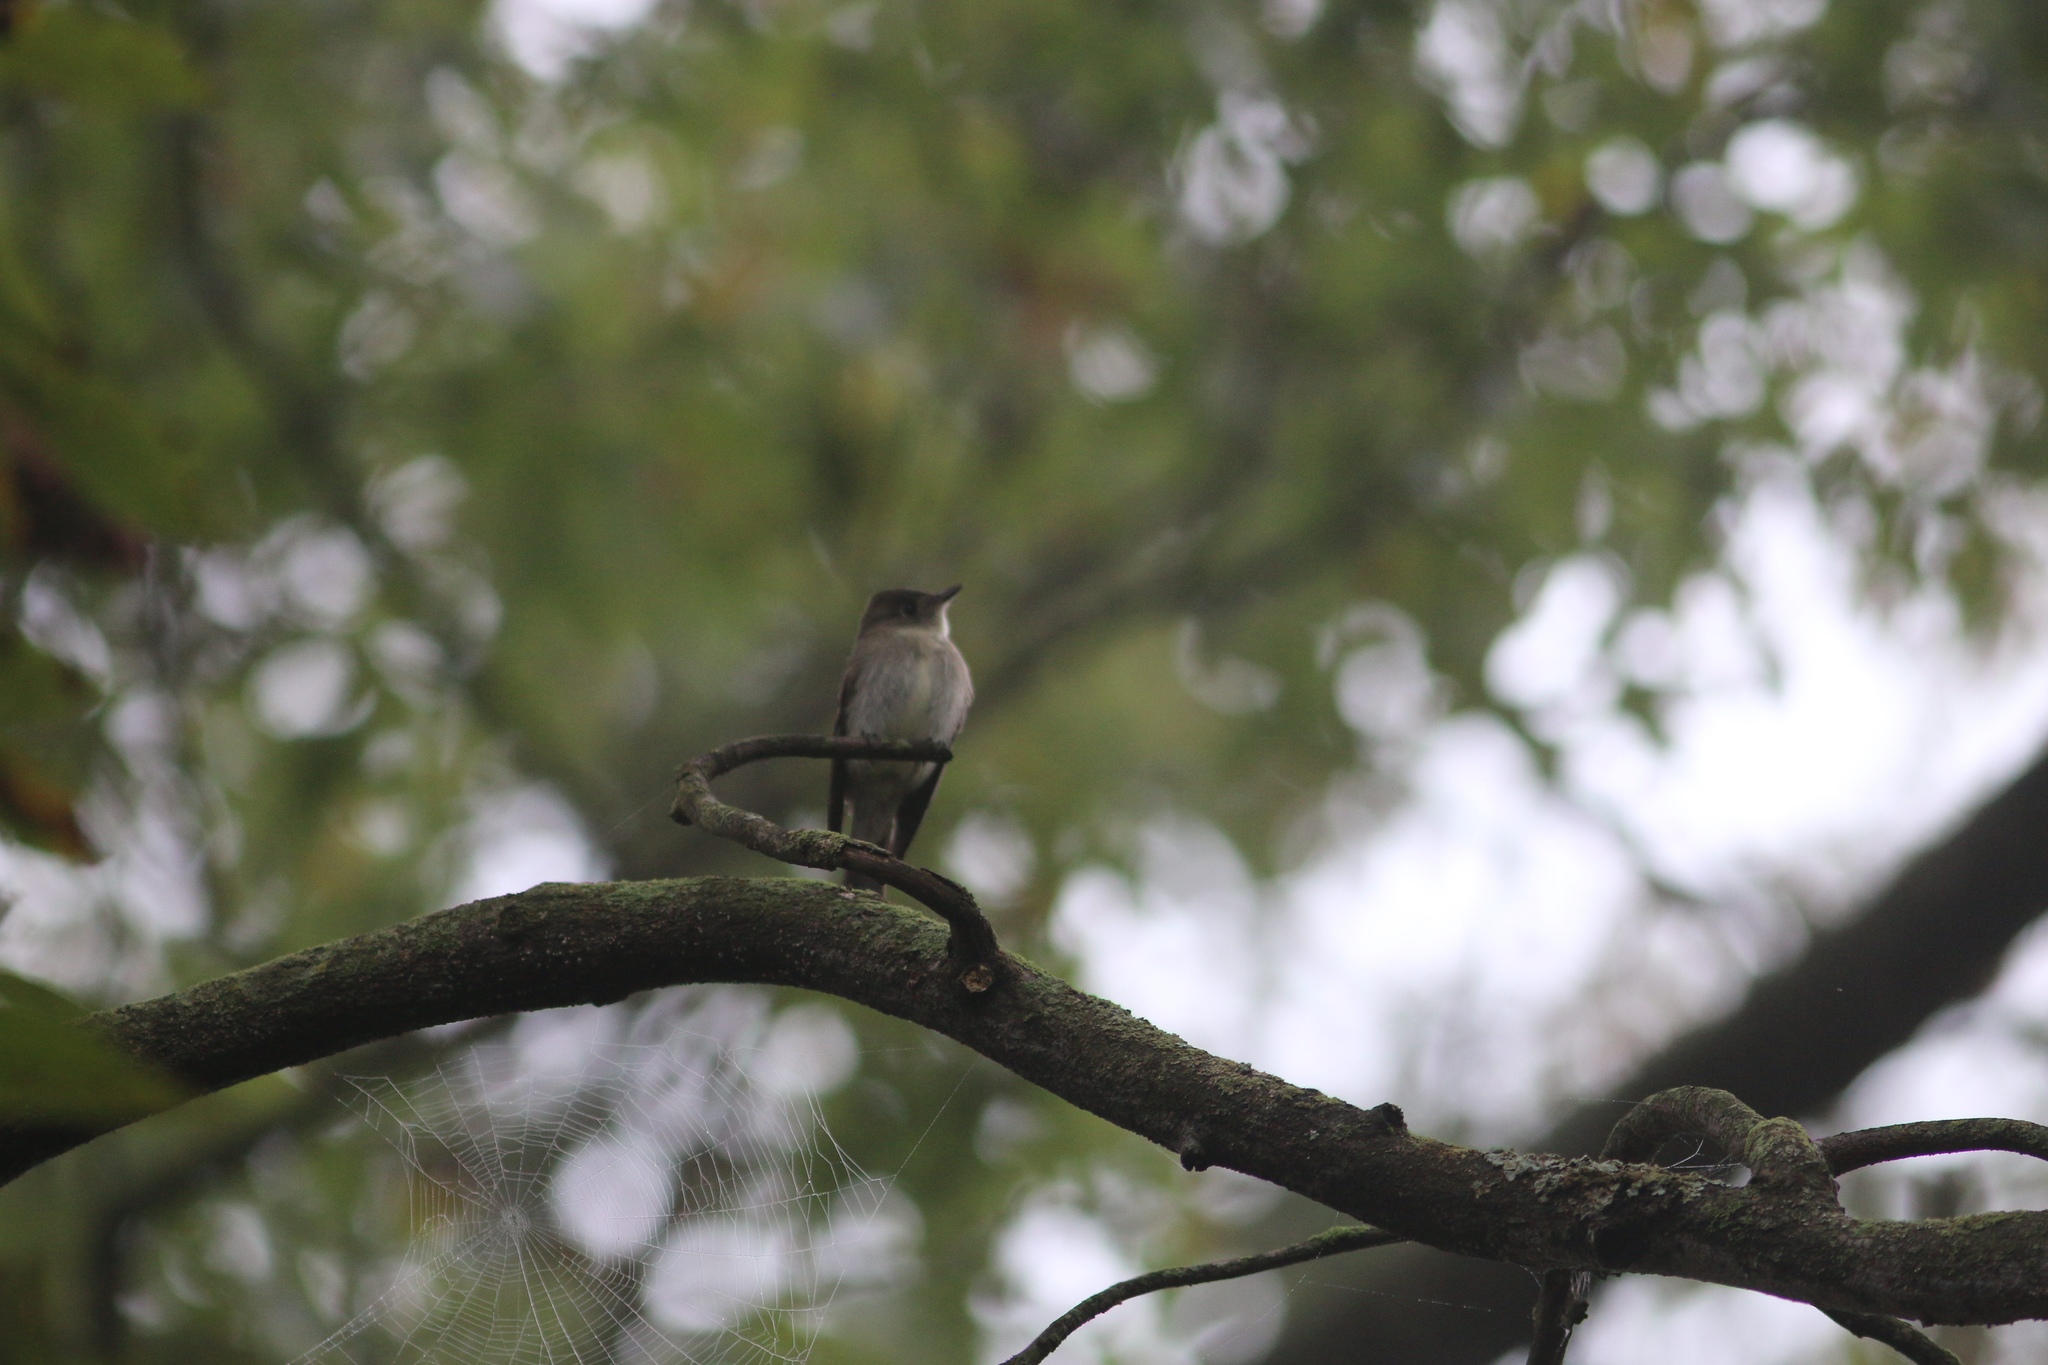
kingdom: Animalia
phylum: Chordata
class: Aves
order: Passeriformes
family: Tyrannidae
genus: Contopus
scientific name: Contopus virens
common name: Eastern wood-pewee
